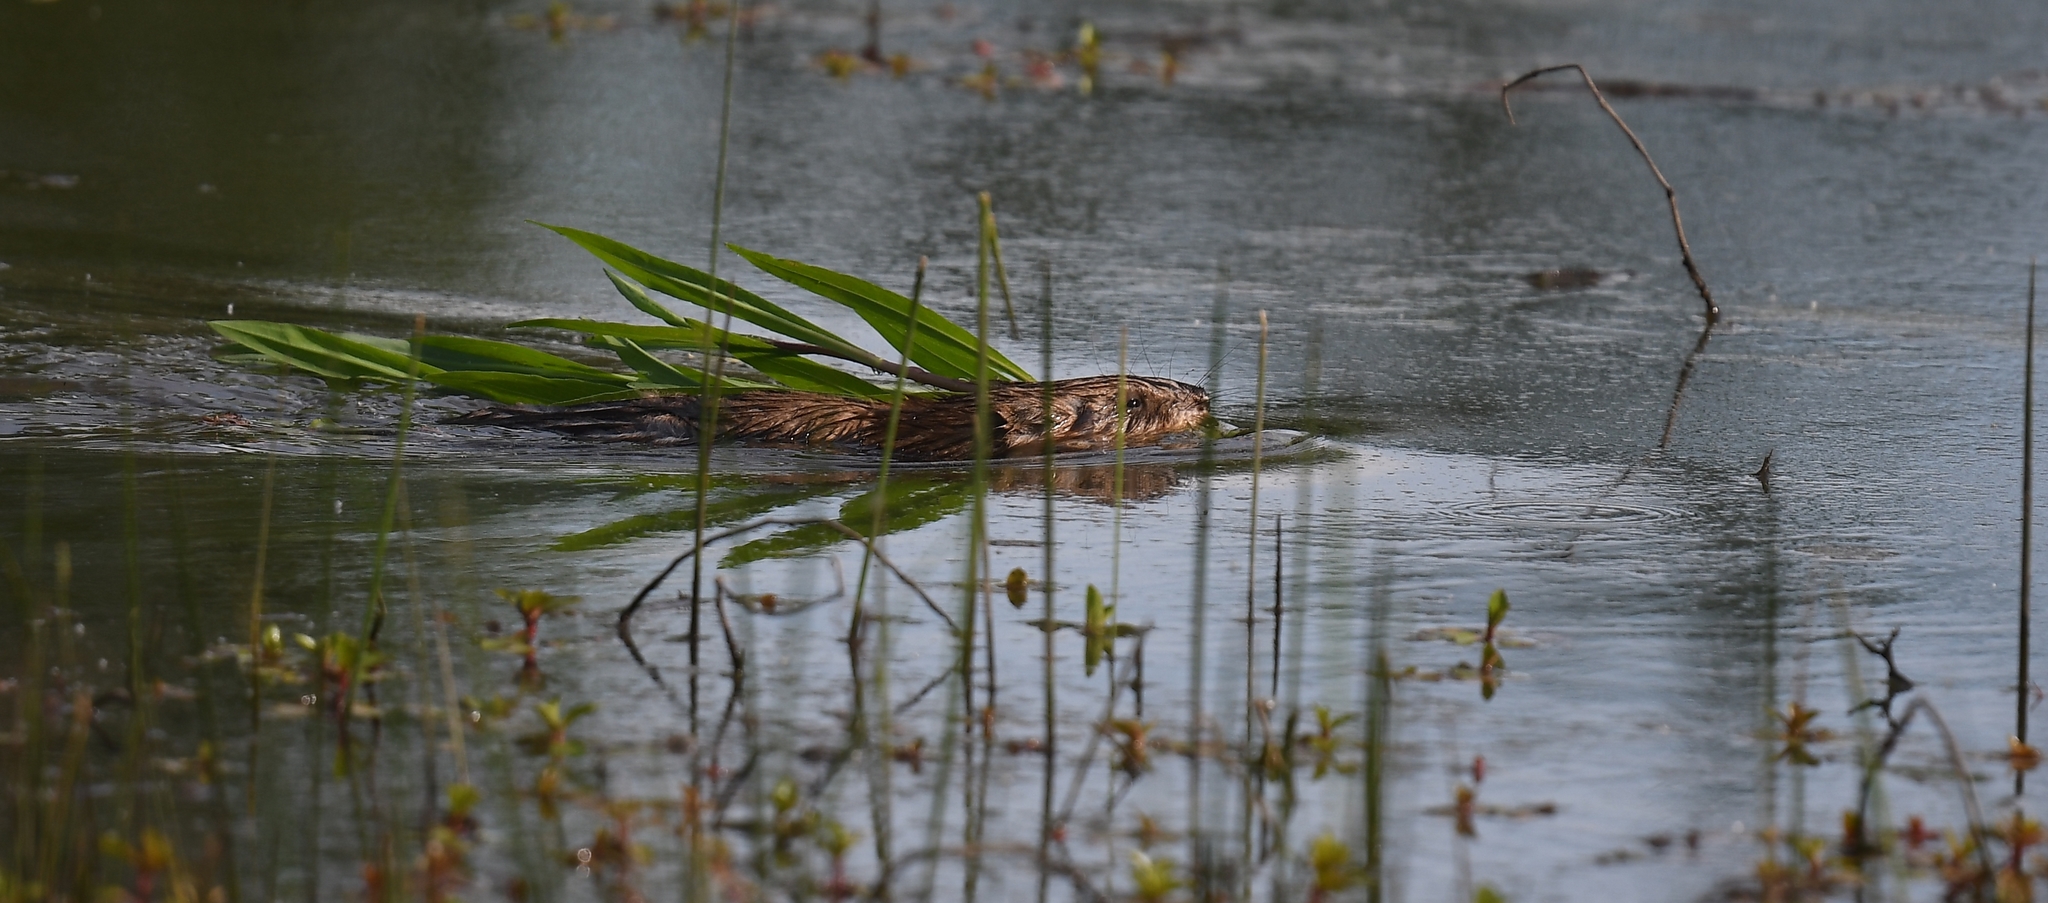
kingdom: Animalia
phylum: Chordata
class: Mammalia
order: Rodentia
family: Cricetidae
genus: Ondatra
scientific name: Ondatra zibethicus
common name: Muskrat
